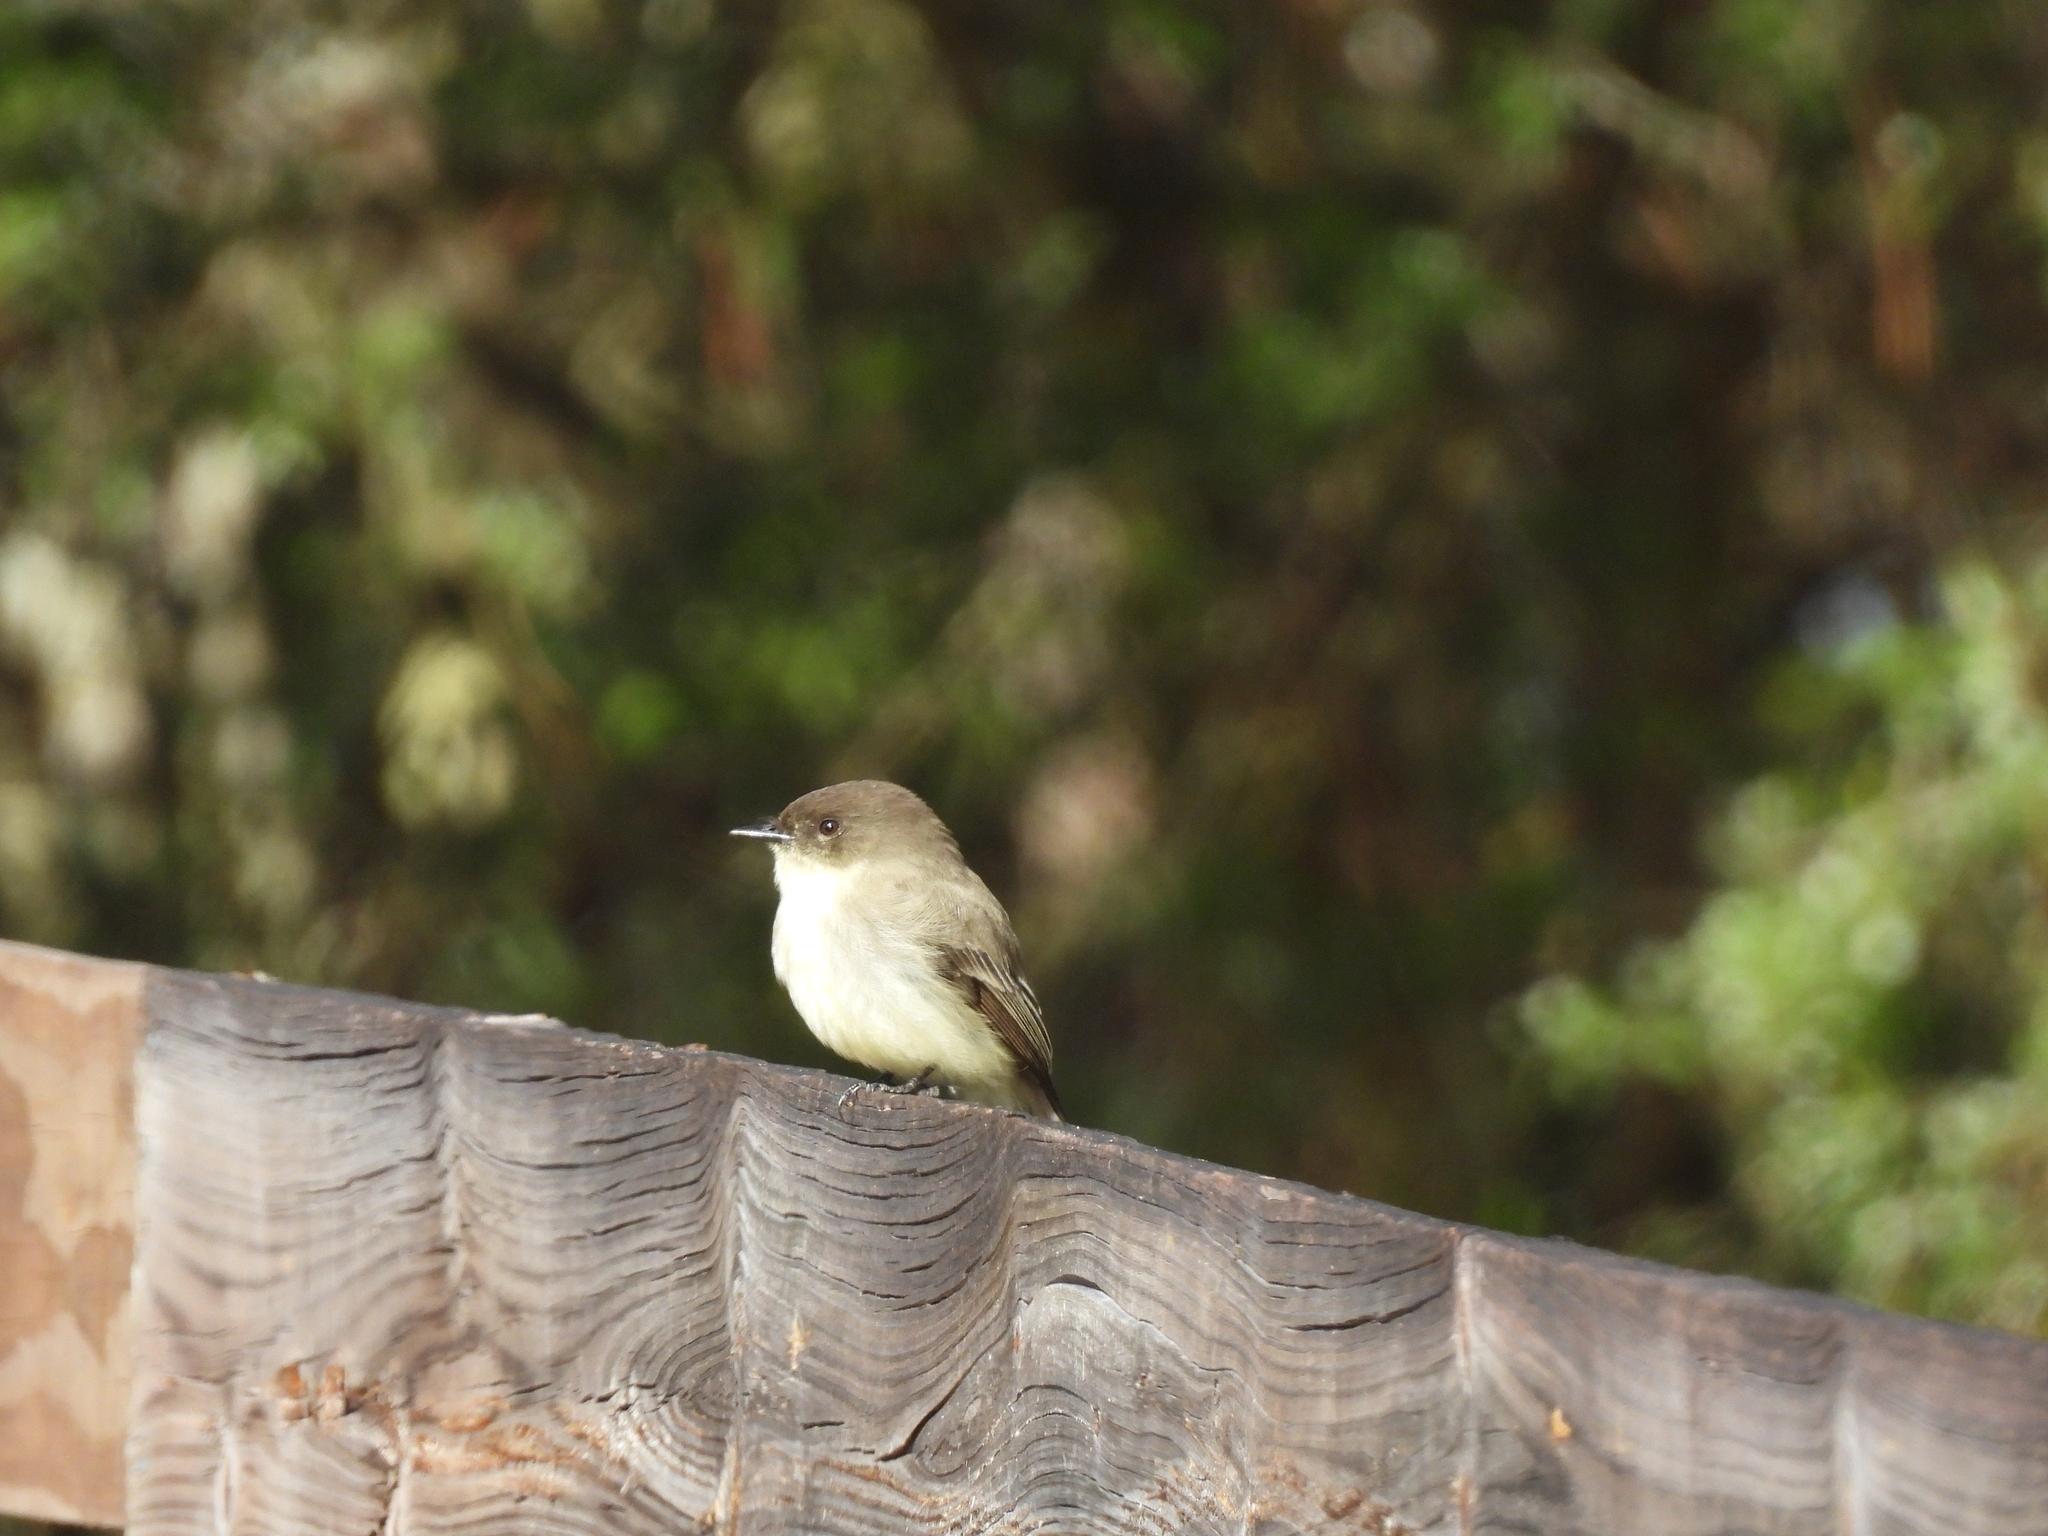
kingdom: Animalia
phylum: Chordata
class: Aves
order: Passeriformes
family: Tyrannidae
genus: Sayornis
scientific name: Sayornis phoebe
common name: Eastern phoebe
